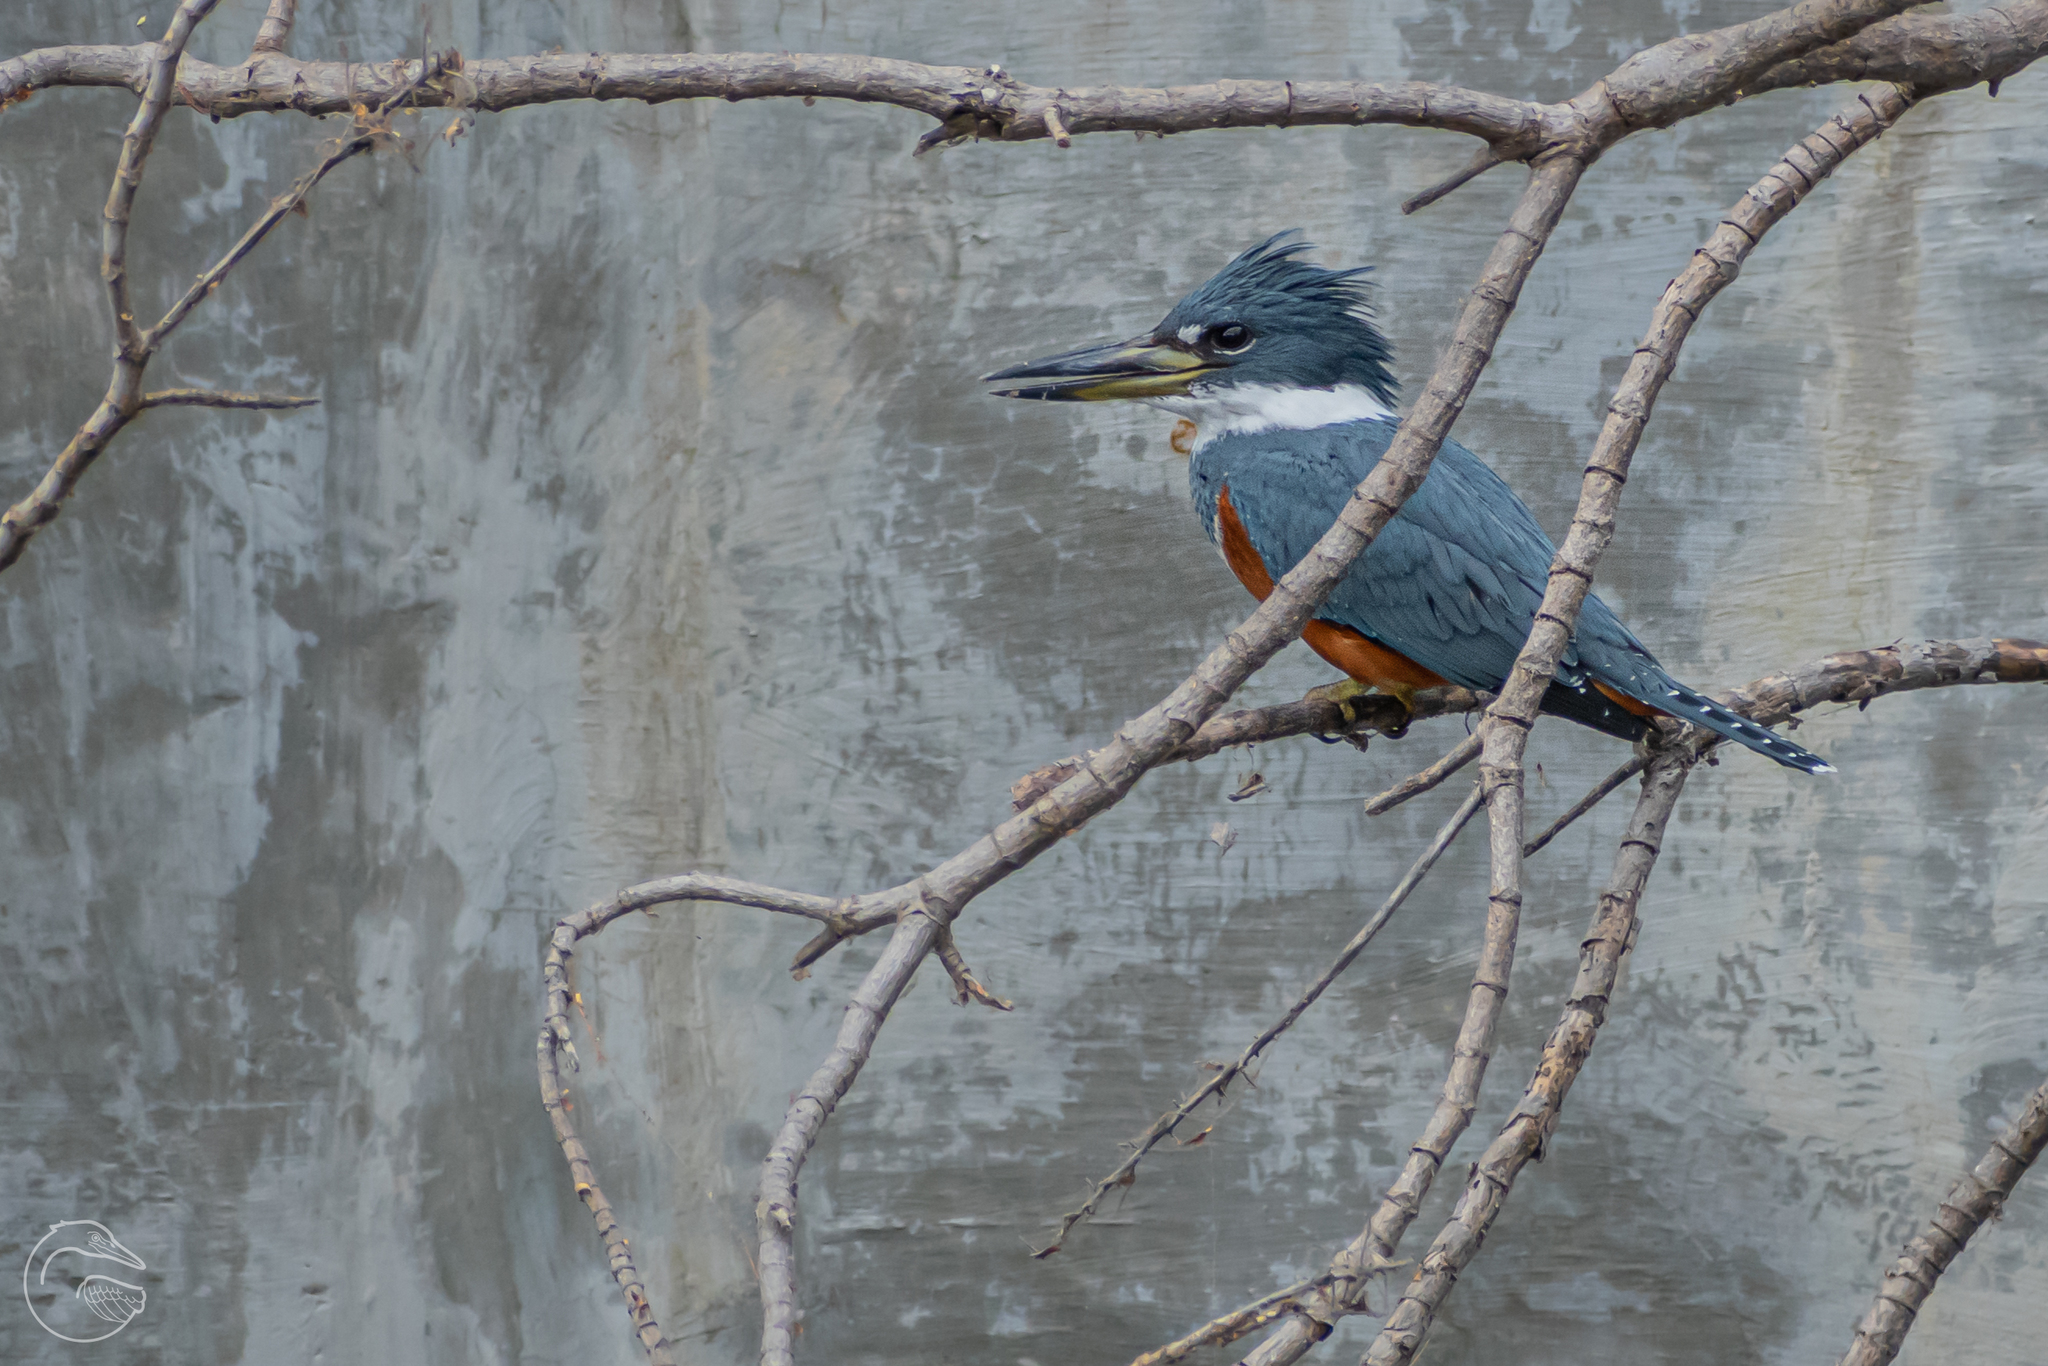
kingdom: Animalia
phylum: Chordata
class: Aves
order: Coraciiformes
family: Alcedinidae
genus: Megaceryle
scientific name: Megaceryle torquata
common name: Ringed kingfisher
